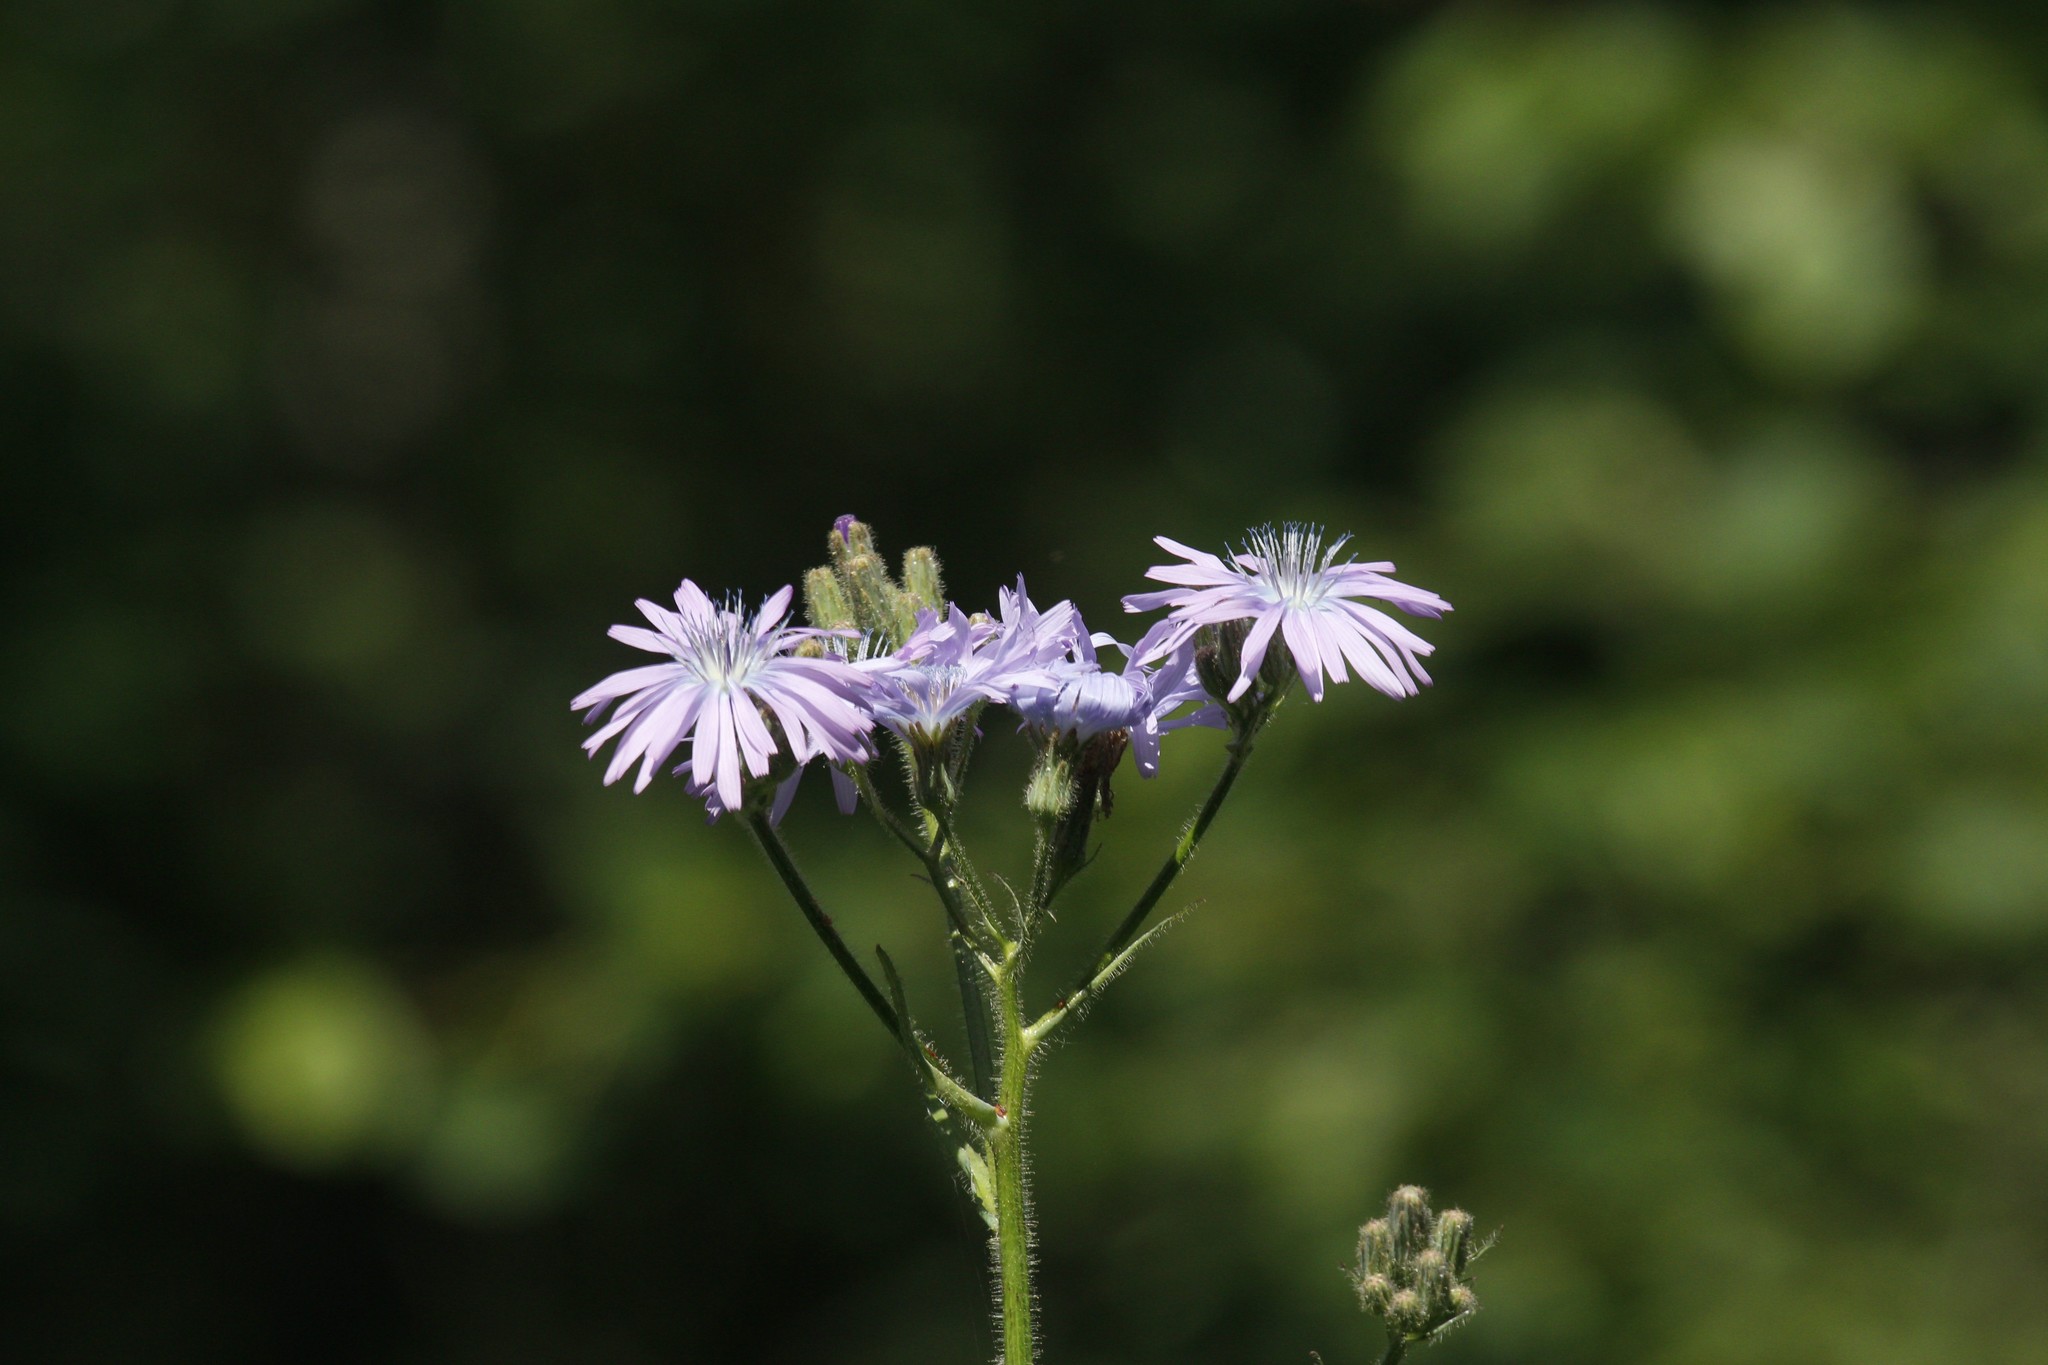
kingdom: Plantae
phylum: Tracheophyta
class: Magnoliopsida
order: Asterales
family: Asteraceae
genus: Lactuca
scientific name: Lactuca macrophylla
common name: Common blue-sow-thistle
